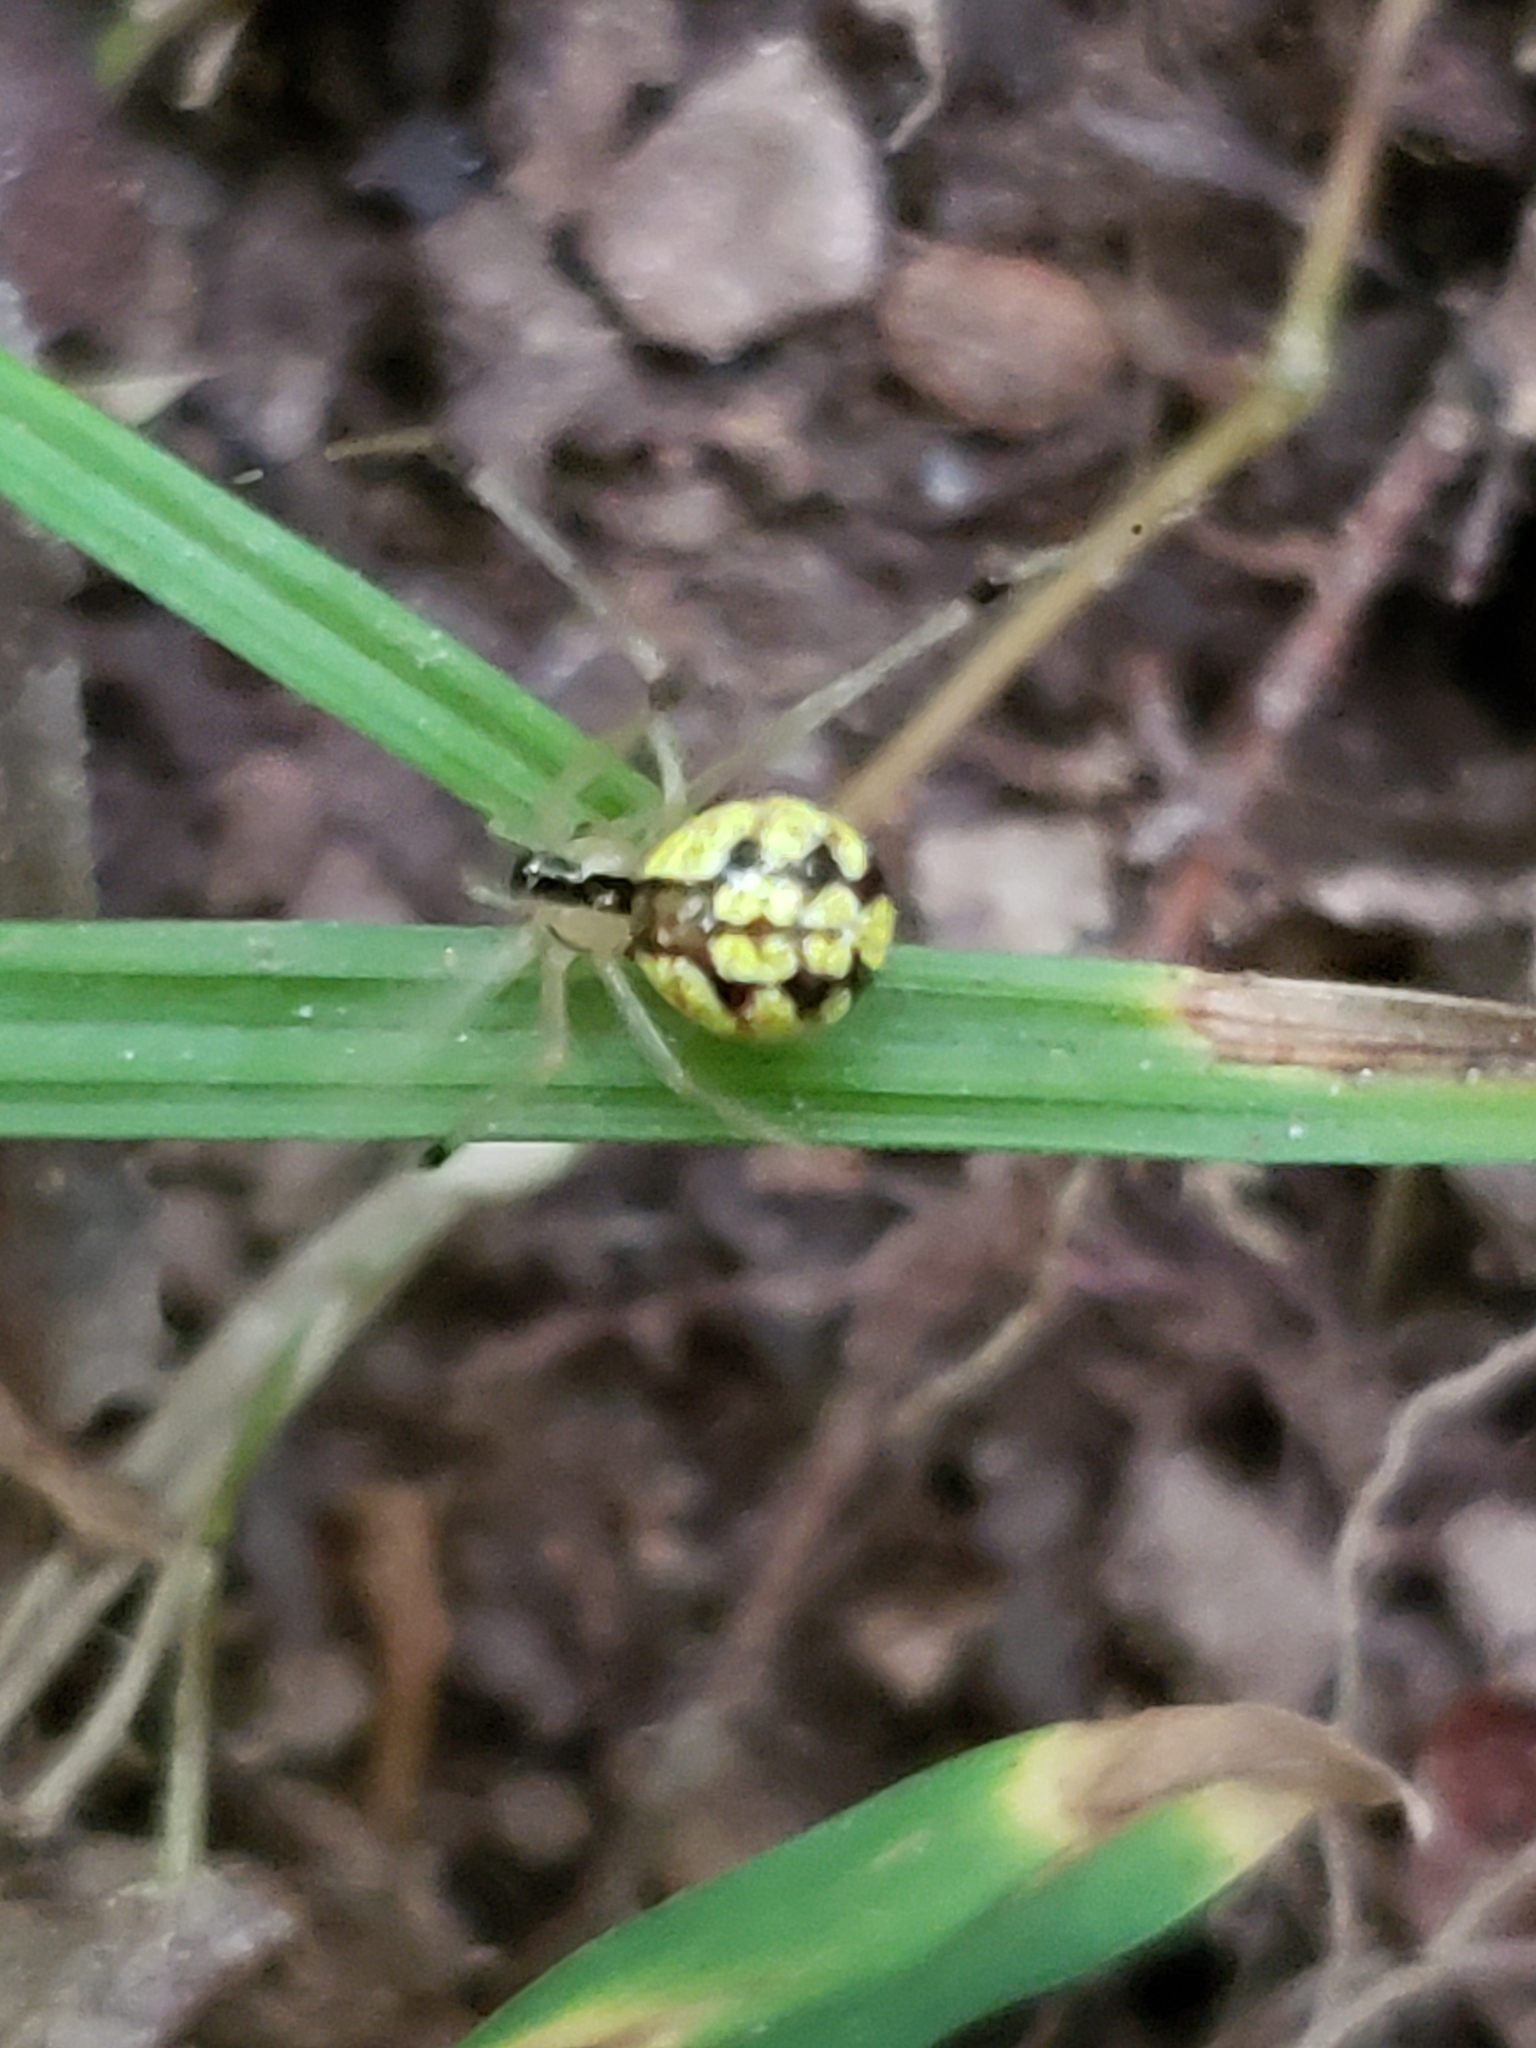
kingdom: Animalia
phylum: Arthropoda
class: Arachnida
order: Araneae
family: Theridiidae
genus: Phylloneta
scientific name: Phylloneta pictipes
